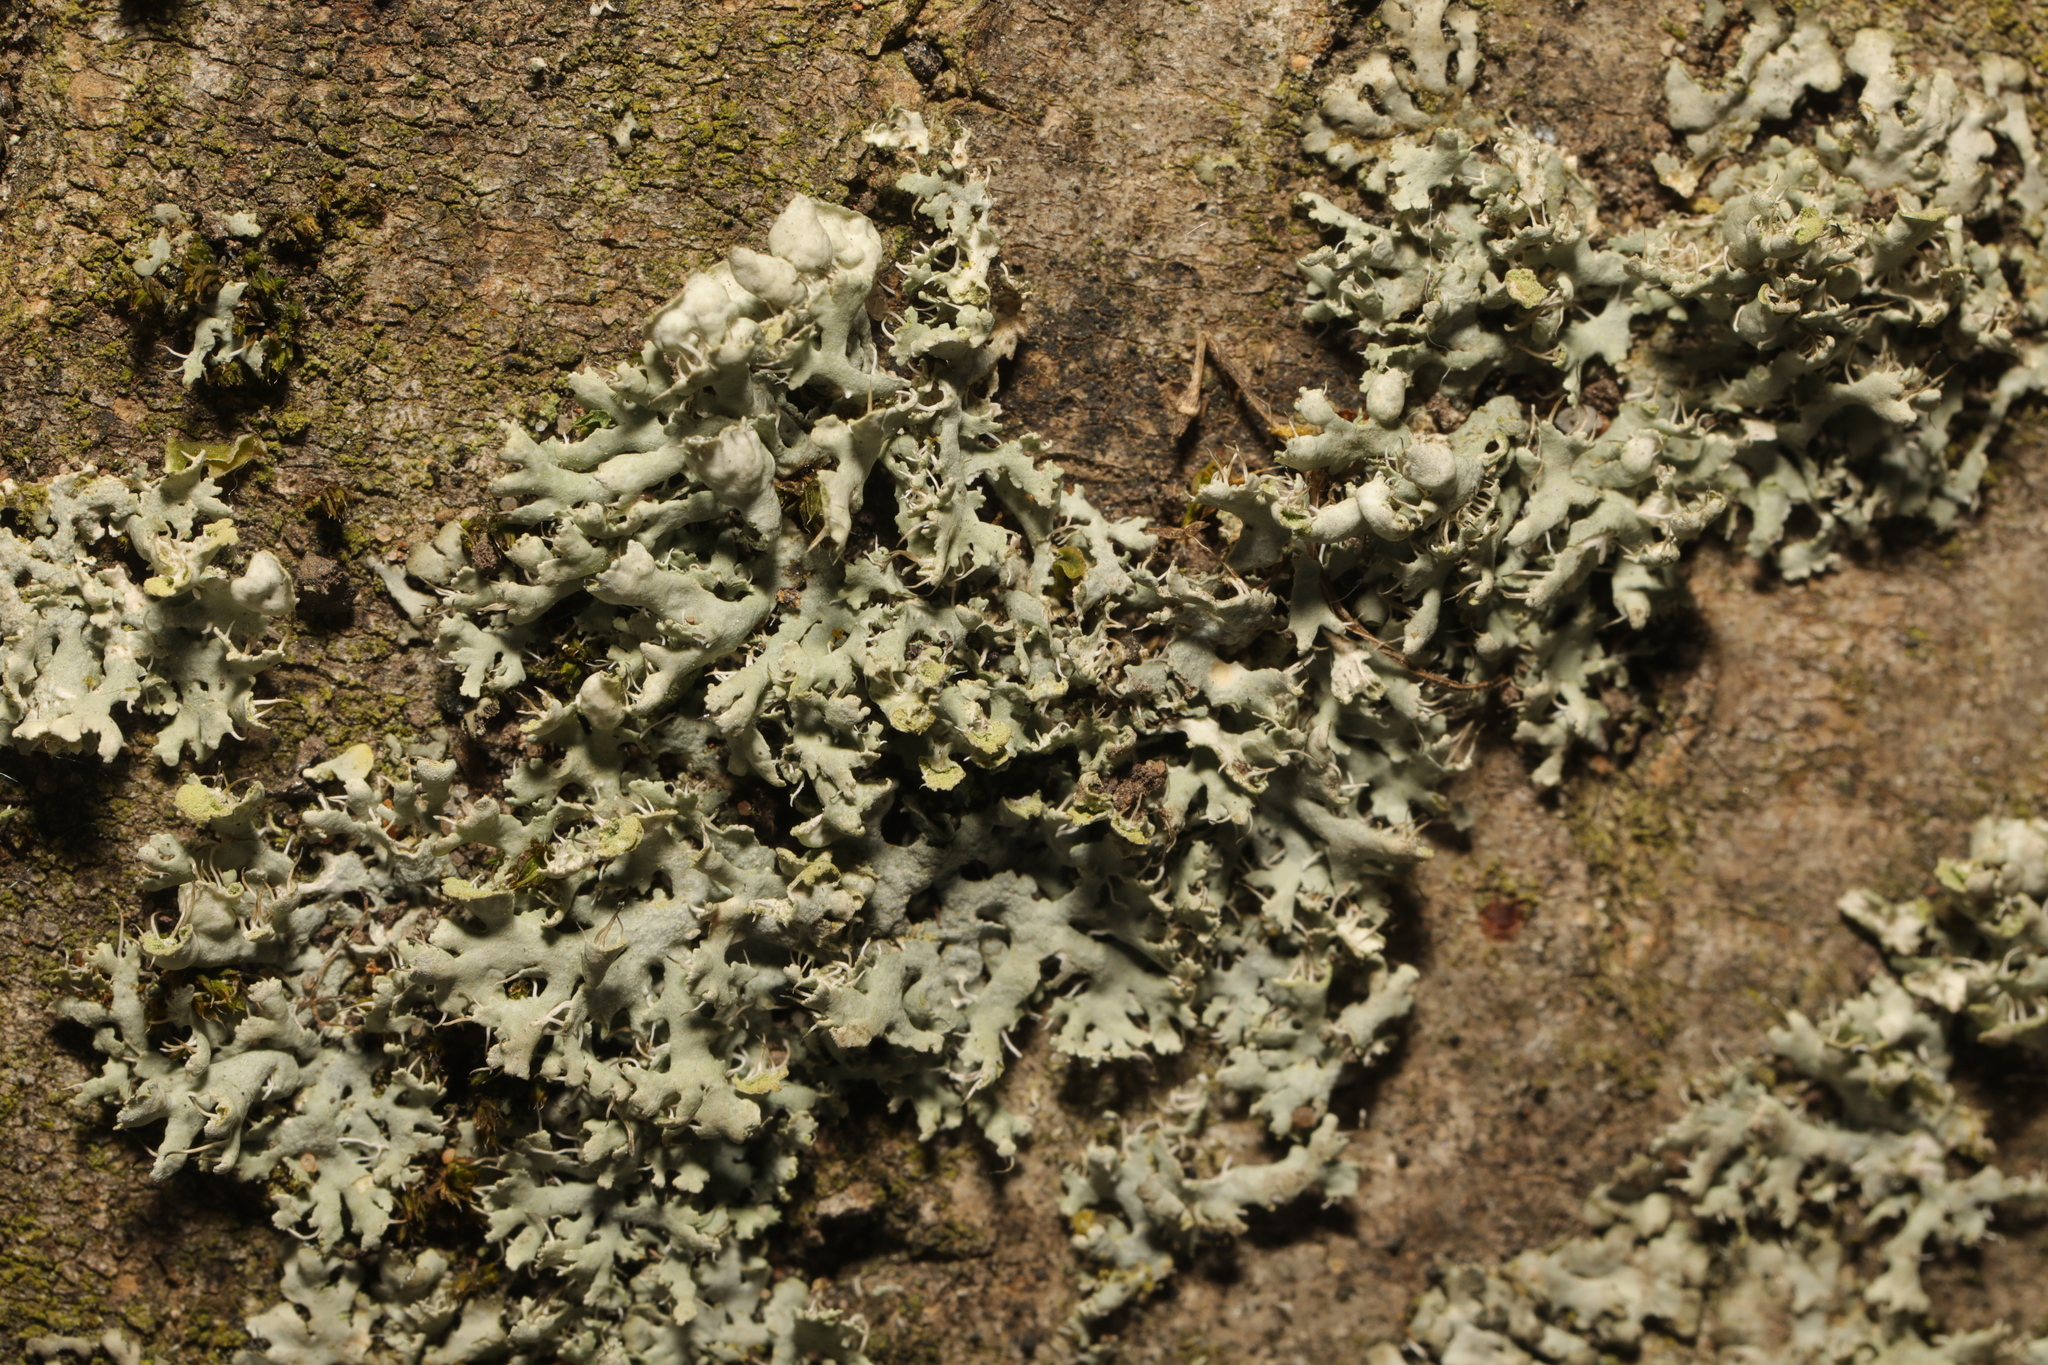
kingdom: Fungi
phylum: Ascomycota
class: Lecanoromycetes
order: Caliciales
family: Physciaceae
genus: Physcia
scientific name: Physcia adscendens
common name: Hooded rosette lichen
